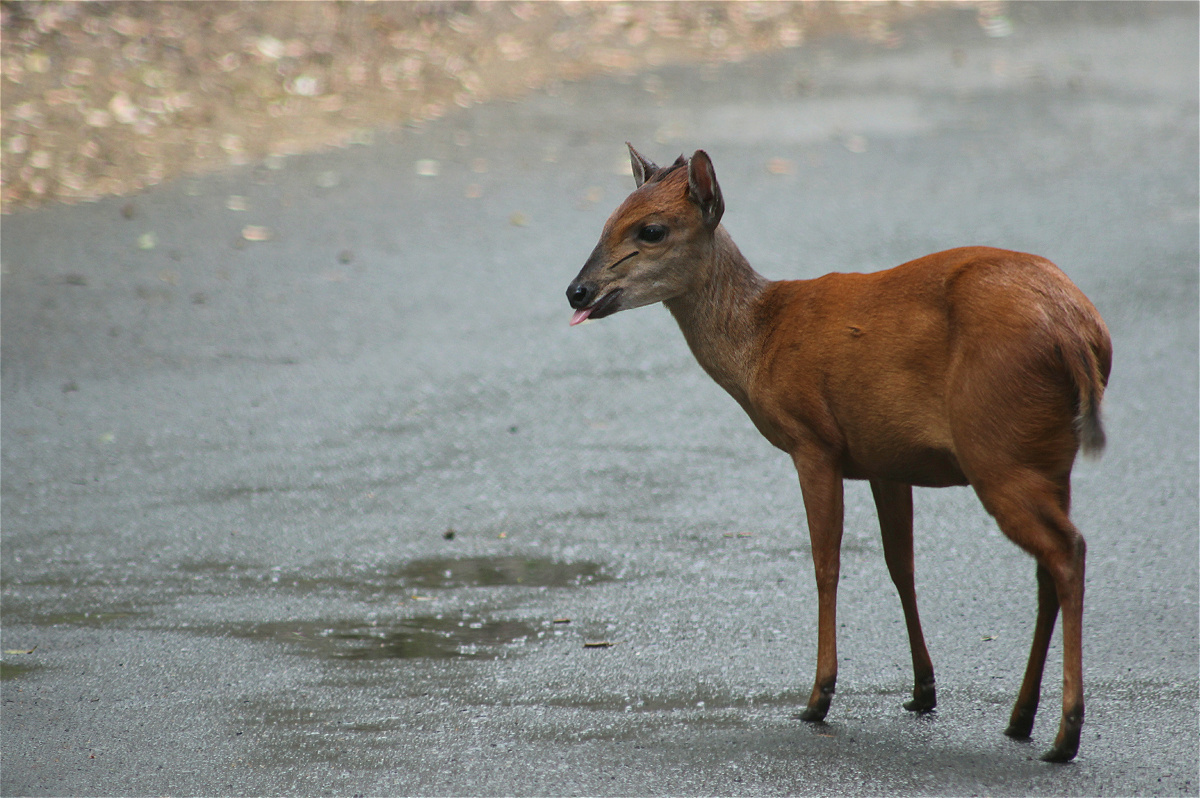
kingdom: Animalia
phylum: Chordata
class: Mammalia
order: Artiodactyla
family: Bovidae
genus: Cephalophus
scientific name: Cephalophus natalensis
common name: Red duiker
